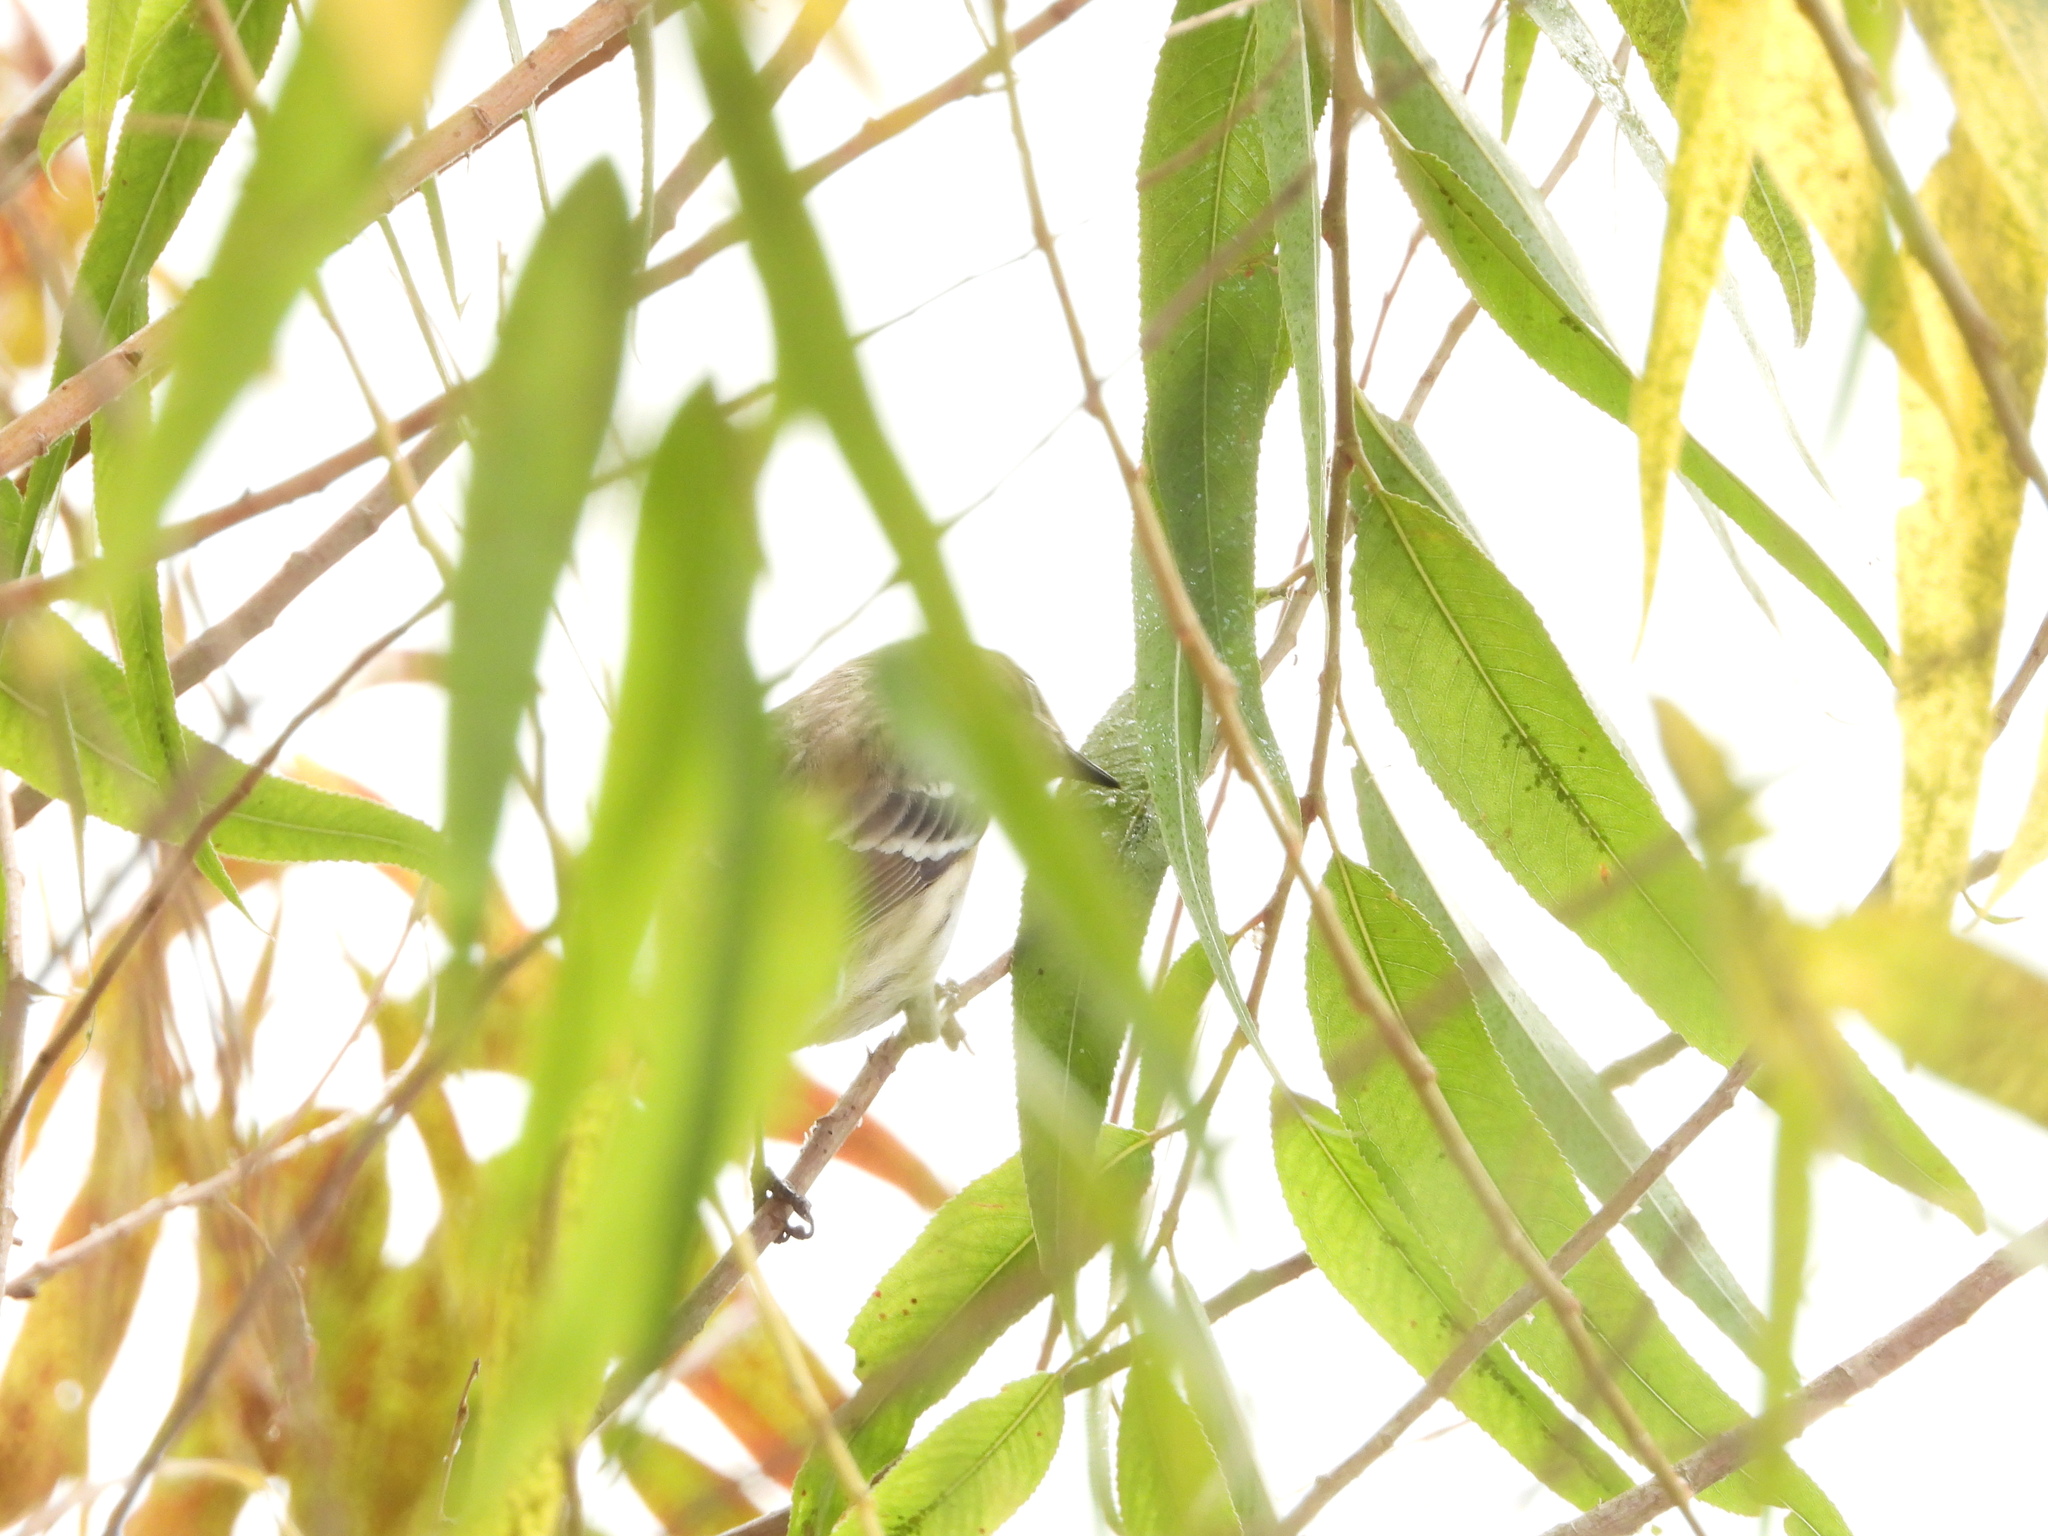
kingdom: Animalia
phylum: Chordata
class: Aves
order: Passeriformes
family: Parulidae
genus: Setophaga
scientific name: Setophaga coronata
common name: Myrtle warbler
